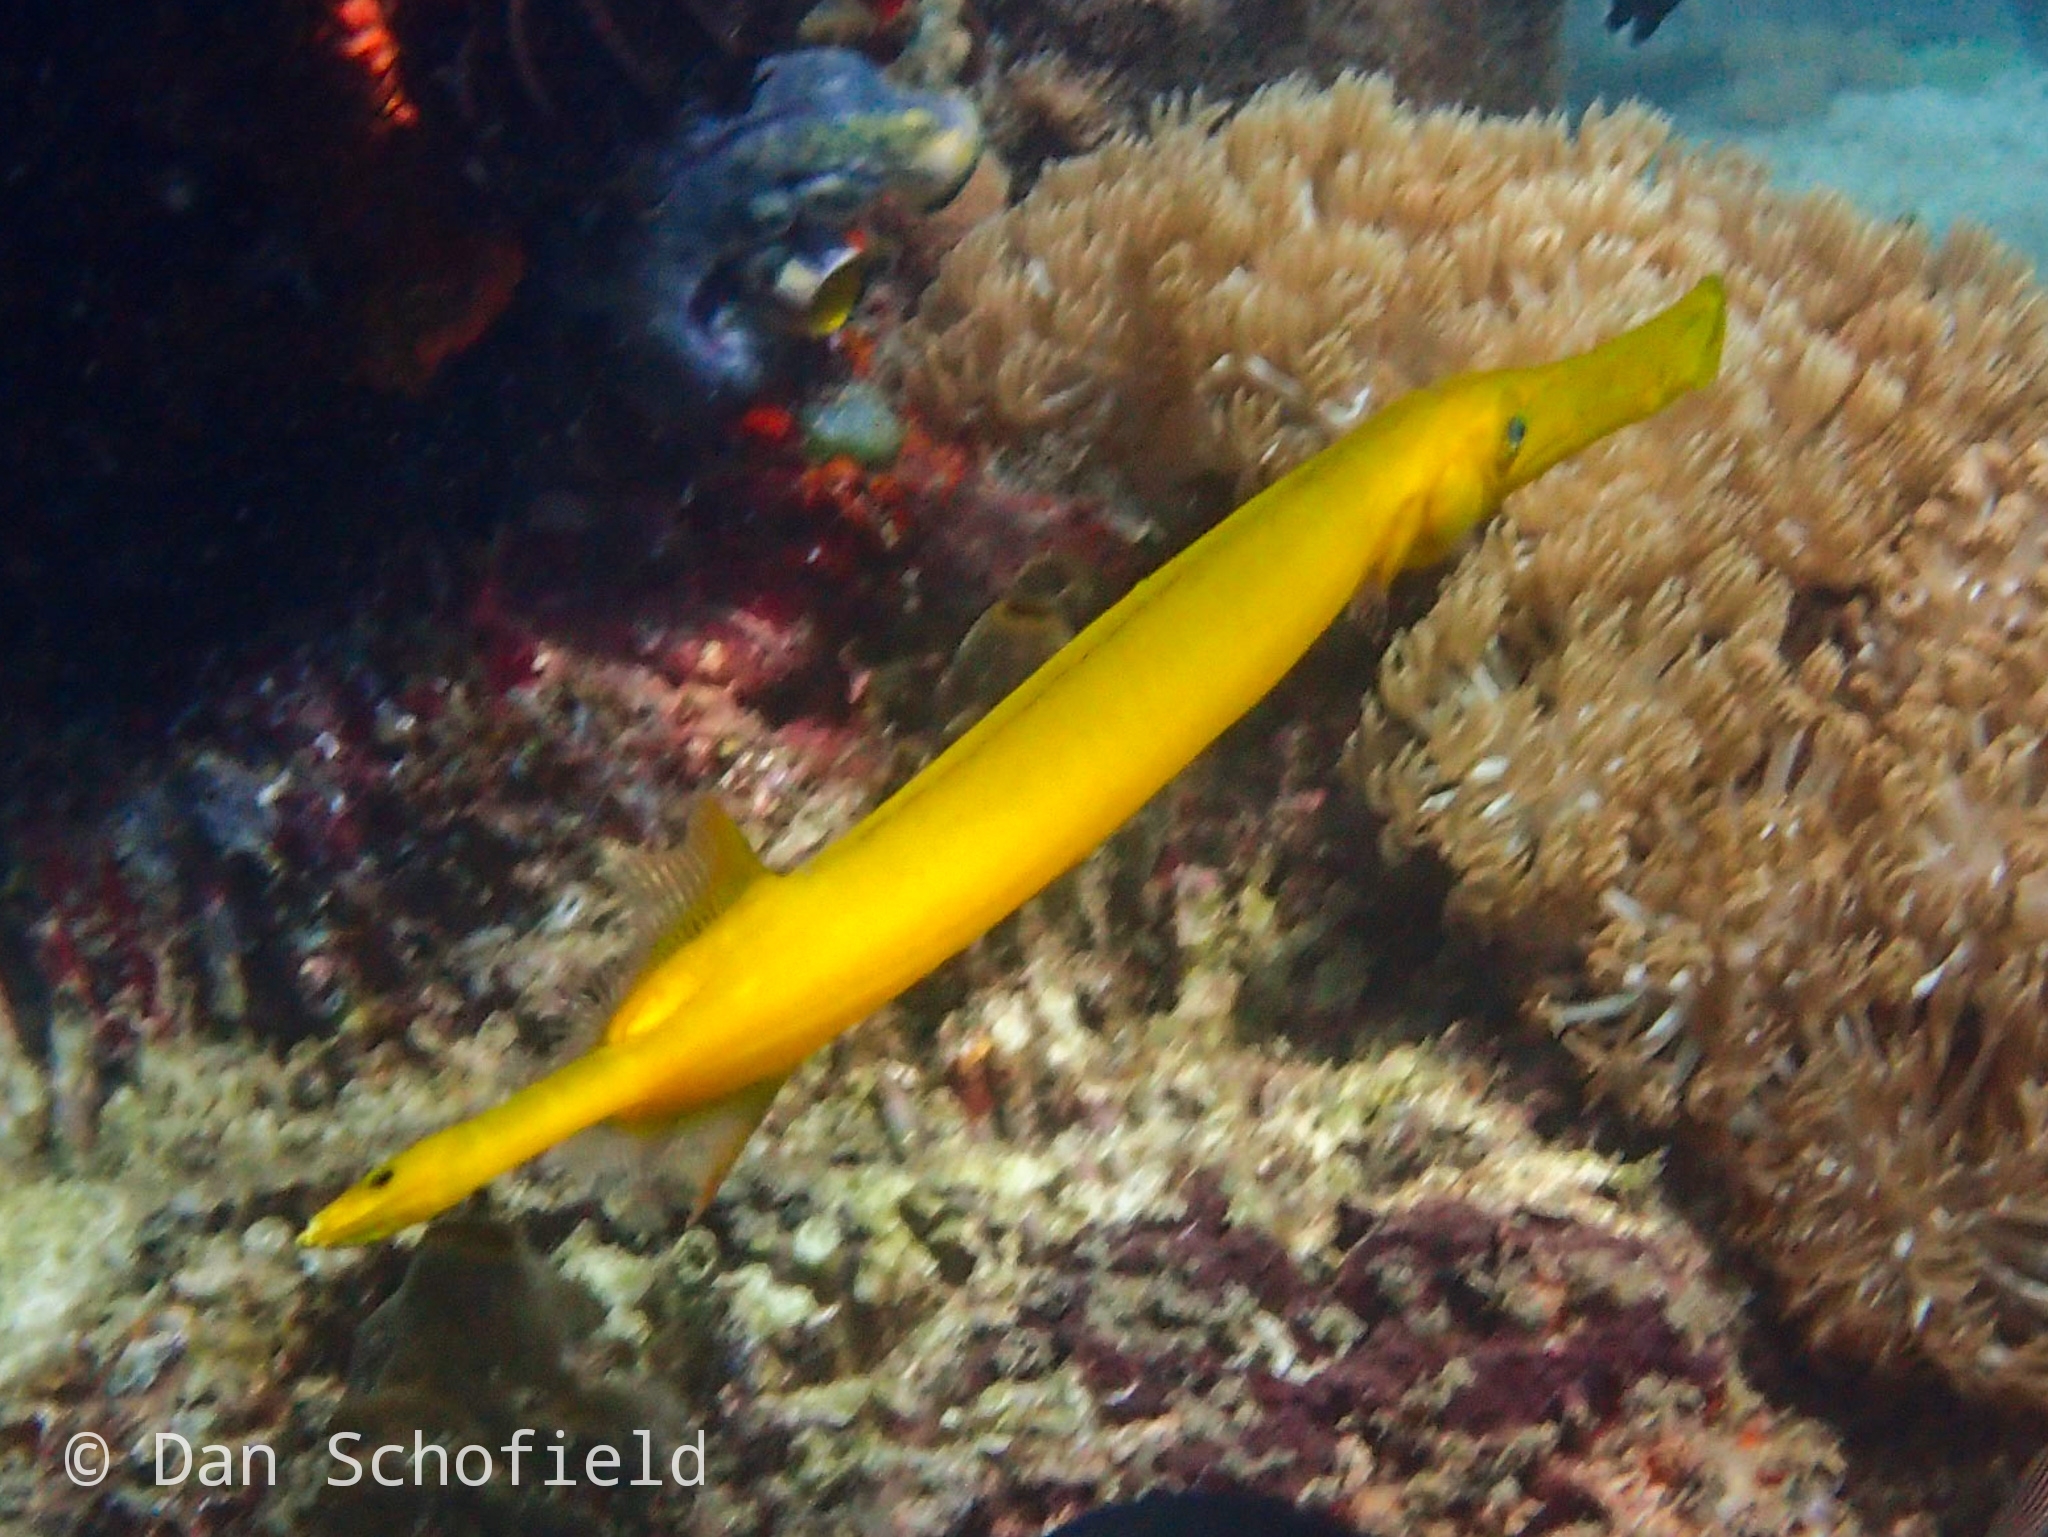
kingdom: Animalia
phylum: Chordata
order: Syngnathiformes
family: Aulostomidae
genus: Aulostomus
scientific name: Aulostomus chinensis
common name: Chinese trumpetfish
